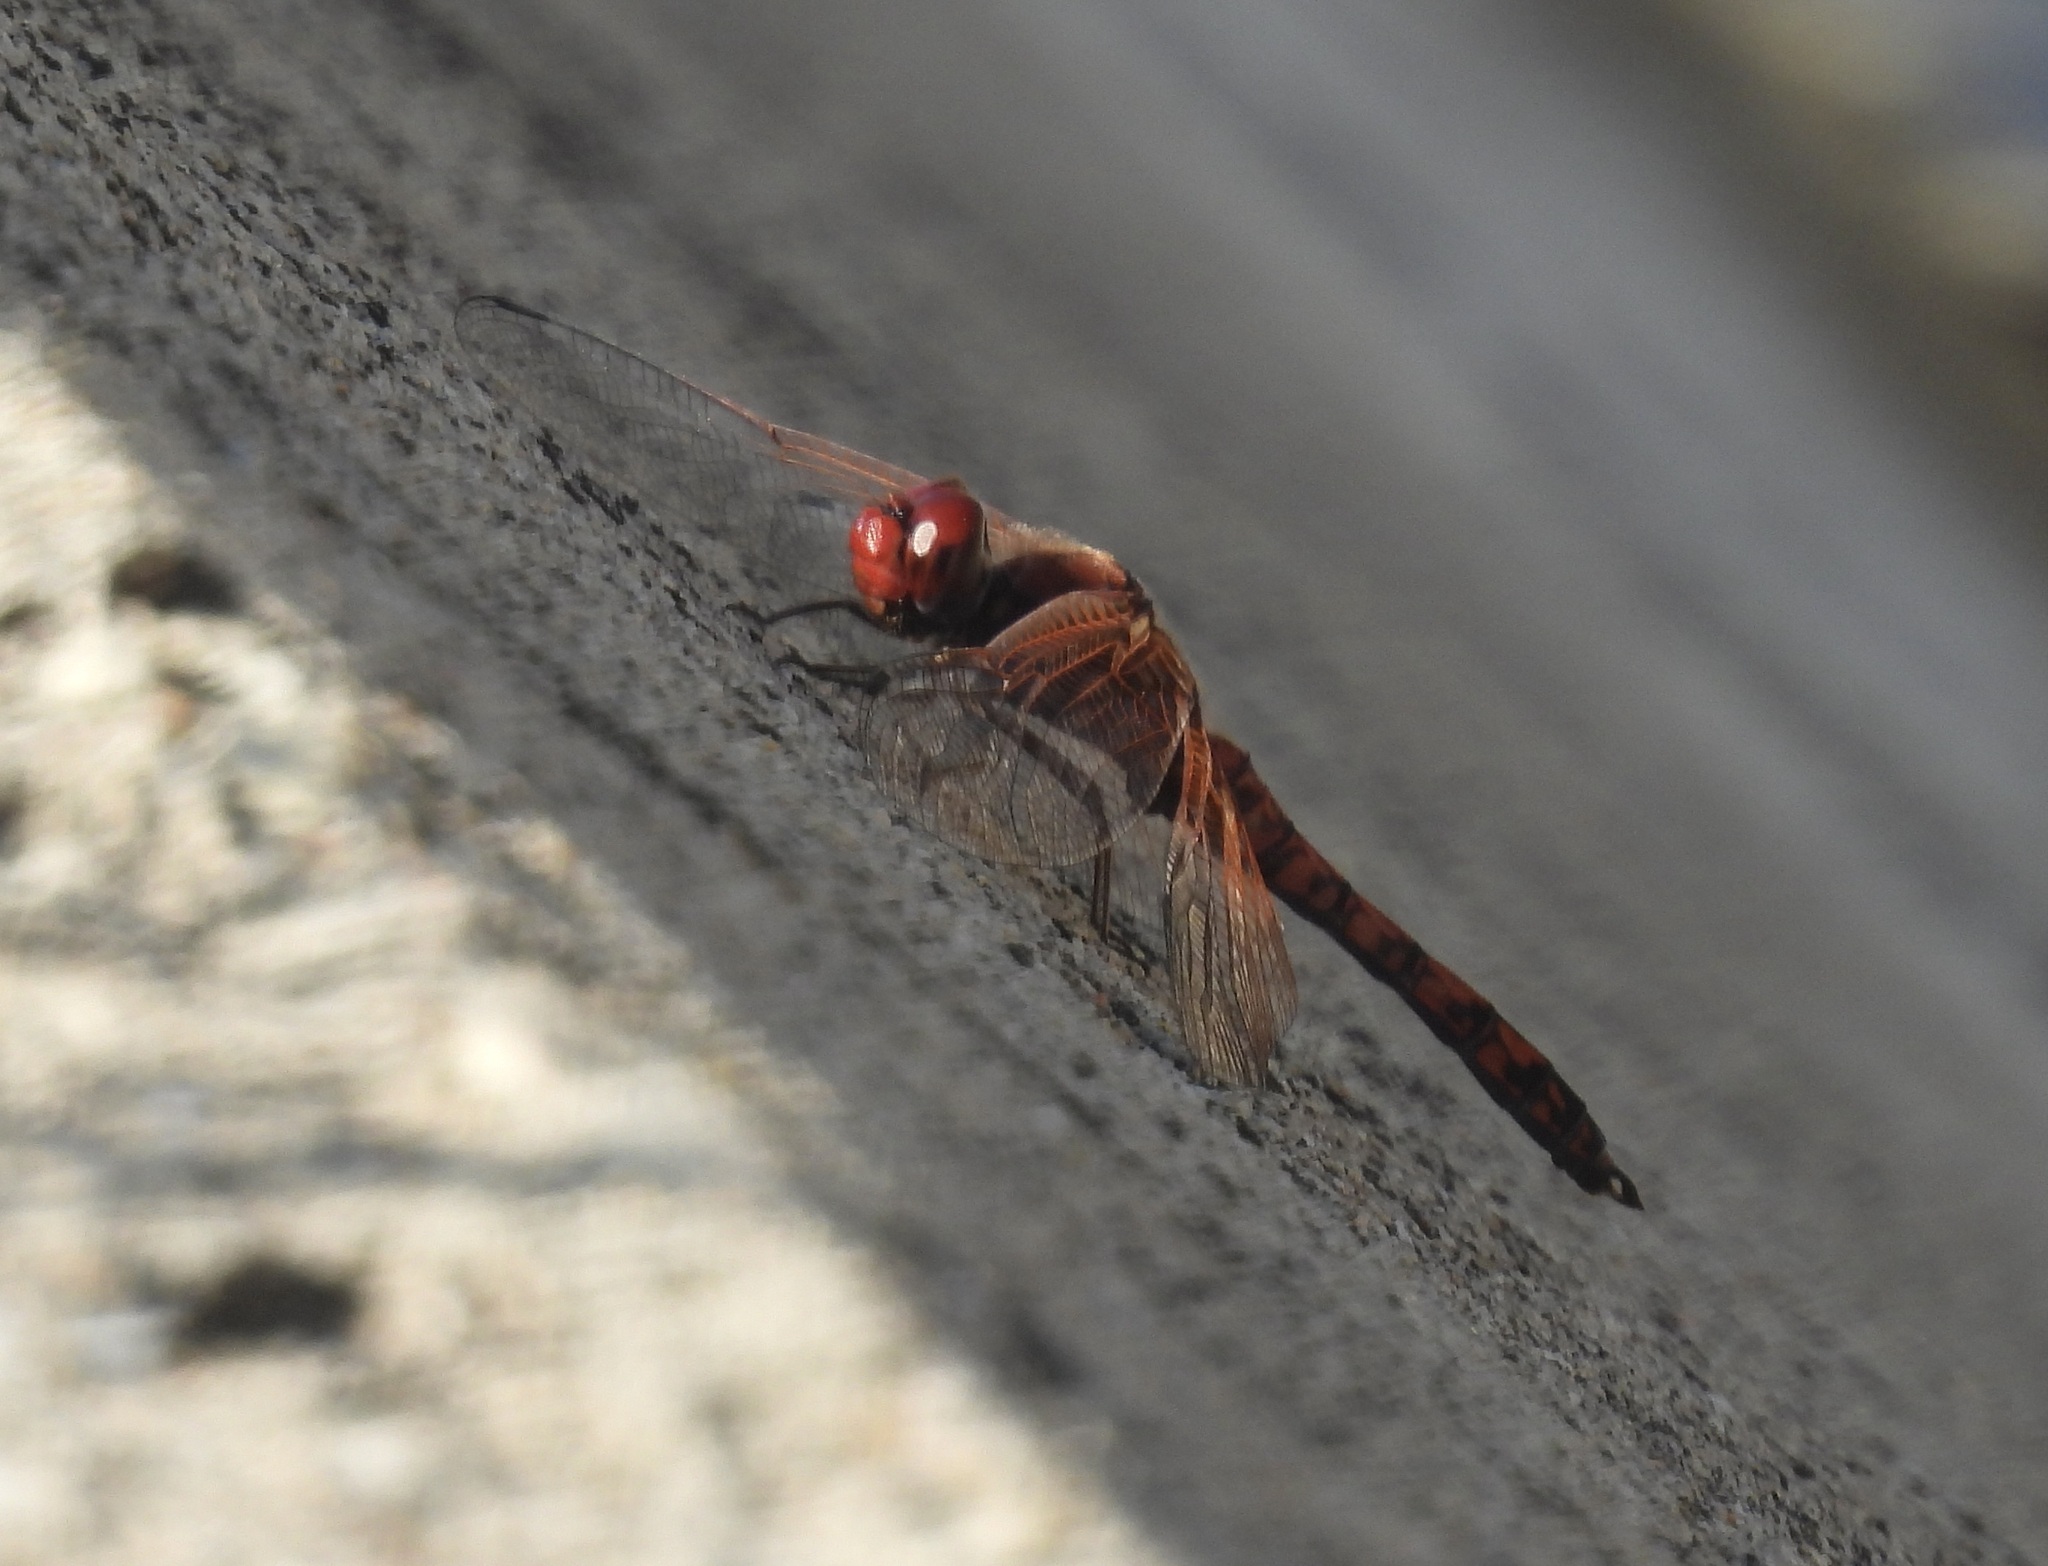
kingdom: Animalia
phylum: Arthropoda
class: Insecta
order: Odonata
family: Libellulidae
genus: Paltothemis
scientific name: Paltothemis lineatipes
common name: Red rock skimmer
